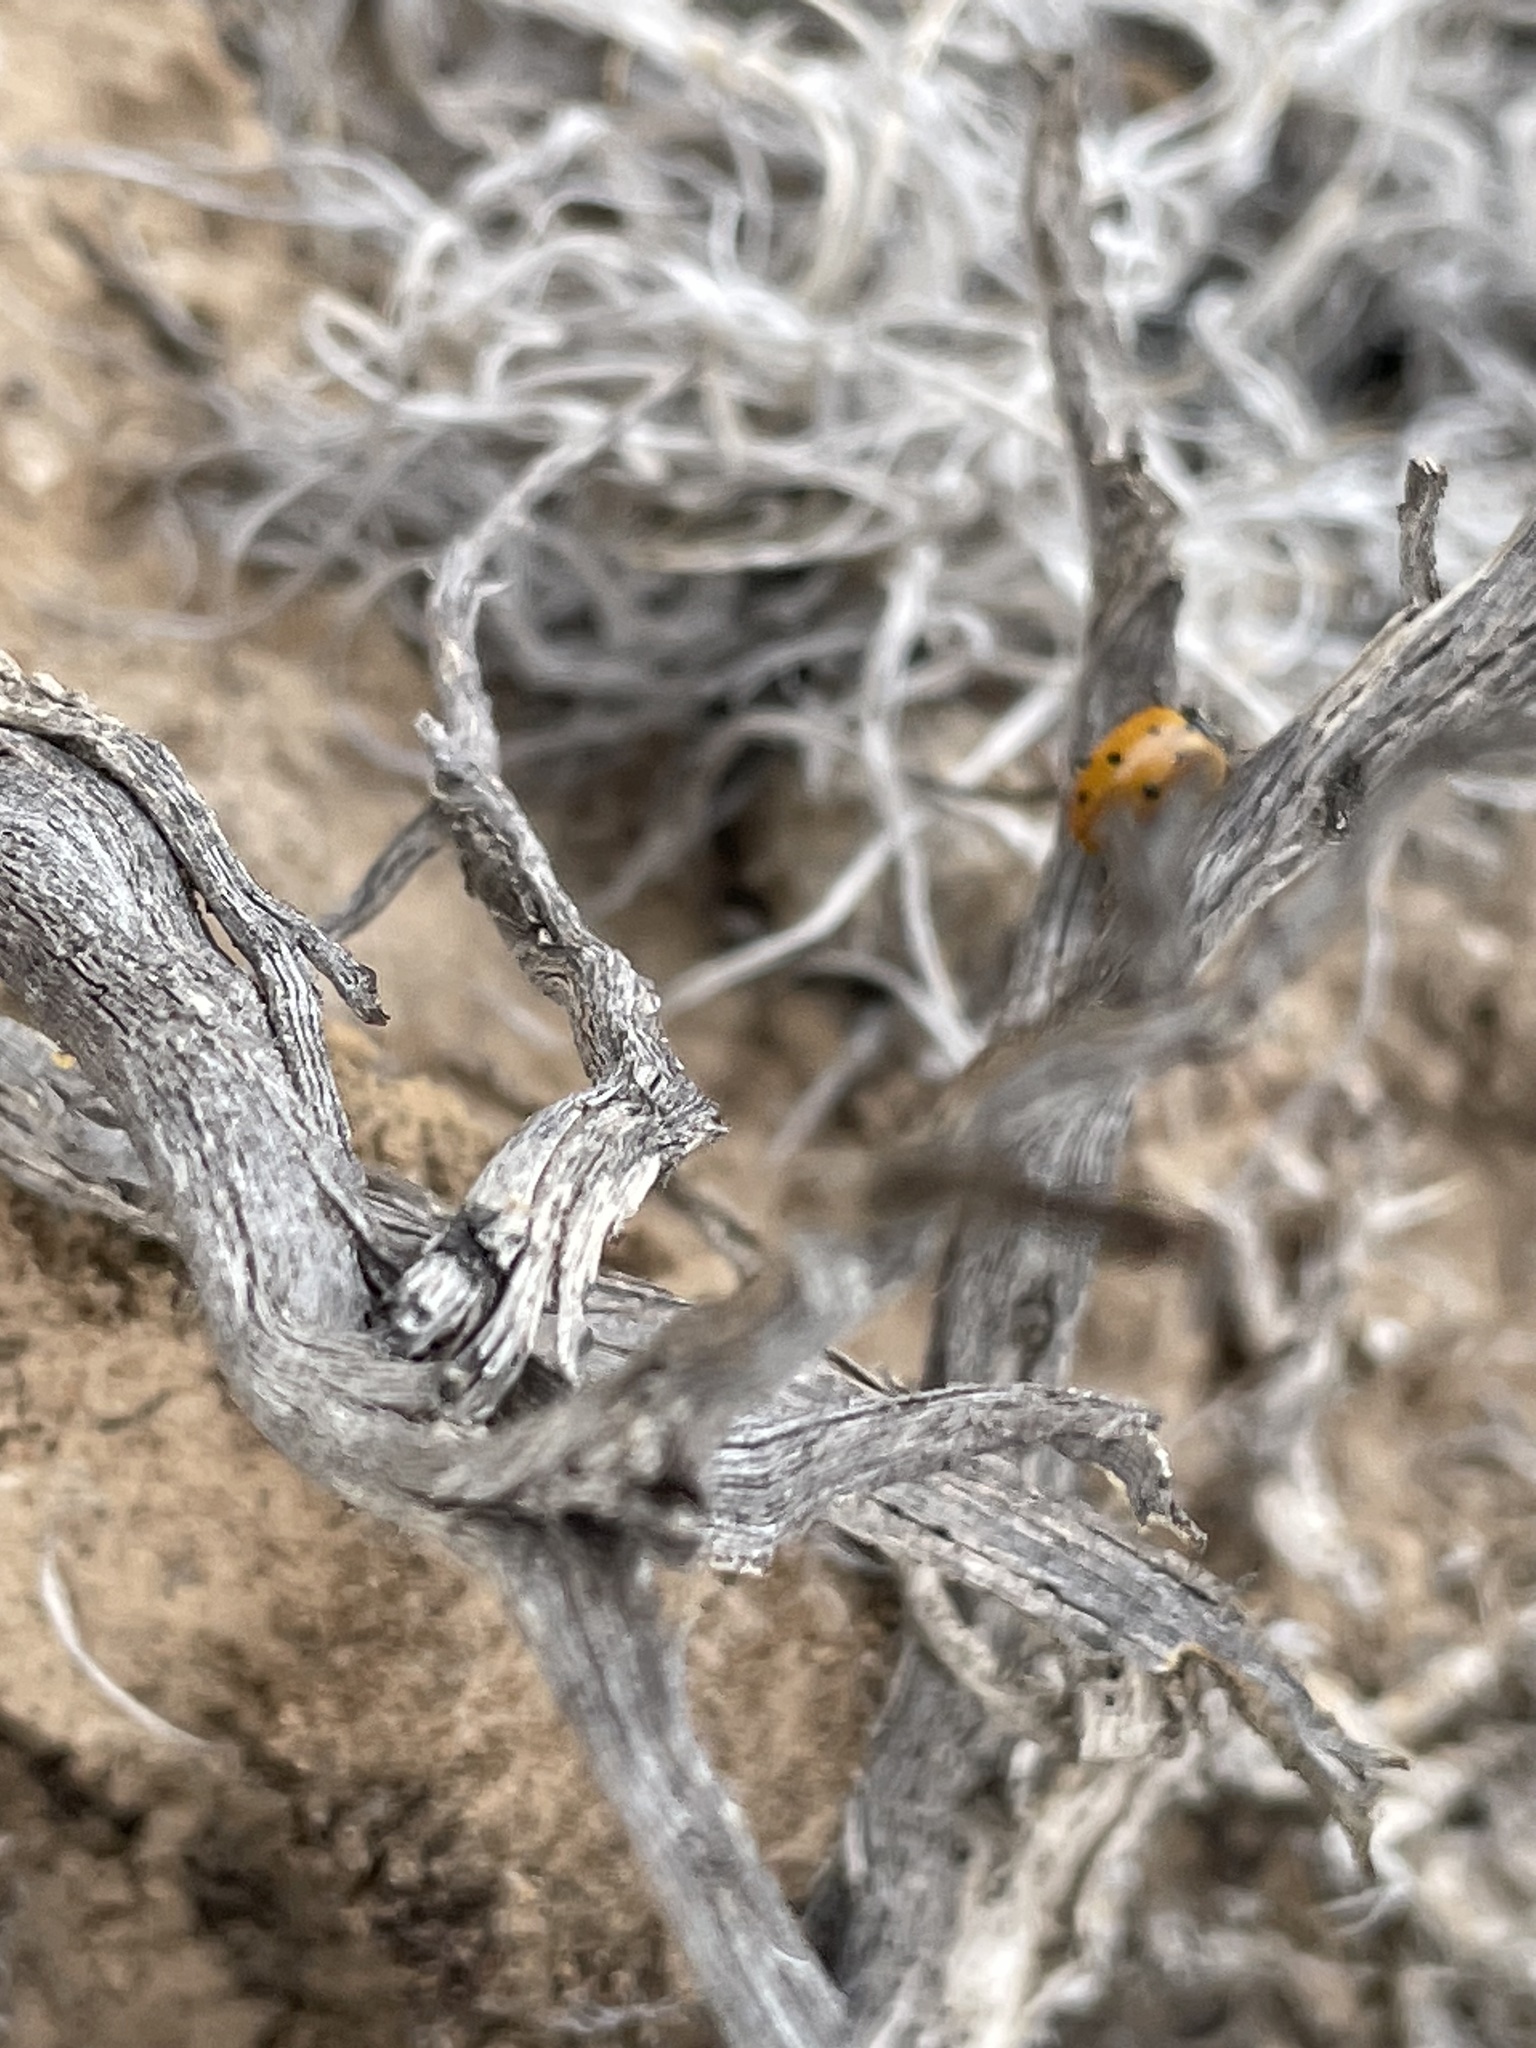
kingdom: Animalia
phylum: Arthropoda
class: Insecta
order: Coleoptera
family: Coccinellidae
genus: Hippodamia
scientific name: Hippodamia convergens
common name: Convergent lady beetle
